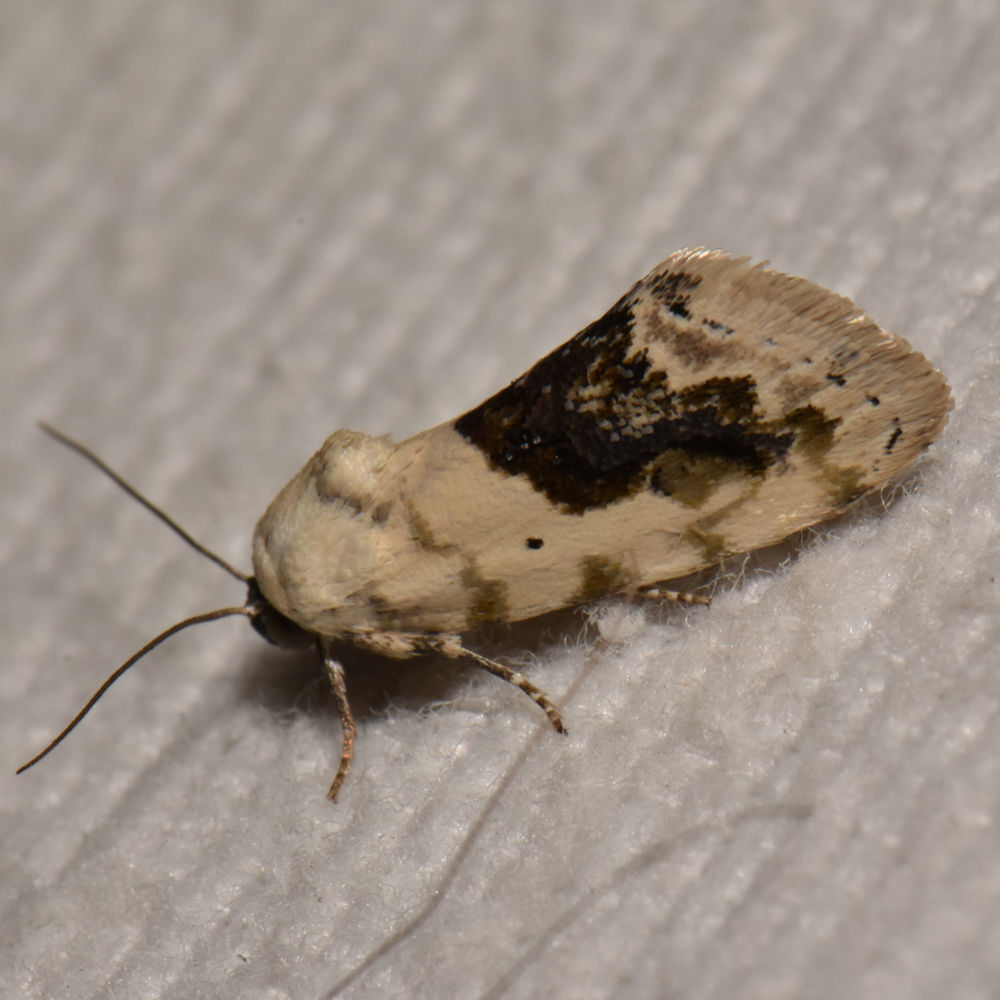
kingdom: Animalia
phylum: Arthropoda
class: Insecta
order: Lepidoptera
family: Noctuidae
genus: Acontia
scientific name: Acontia erastrioides
